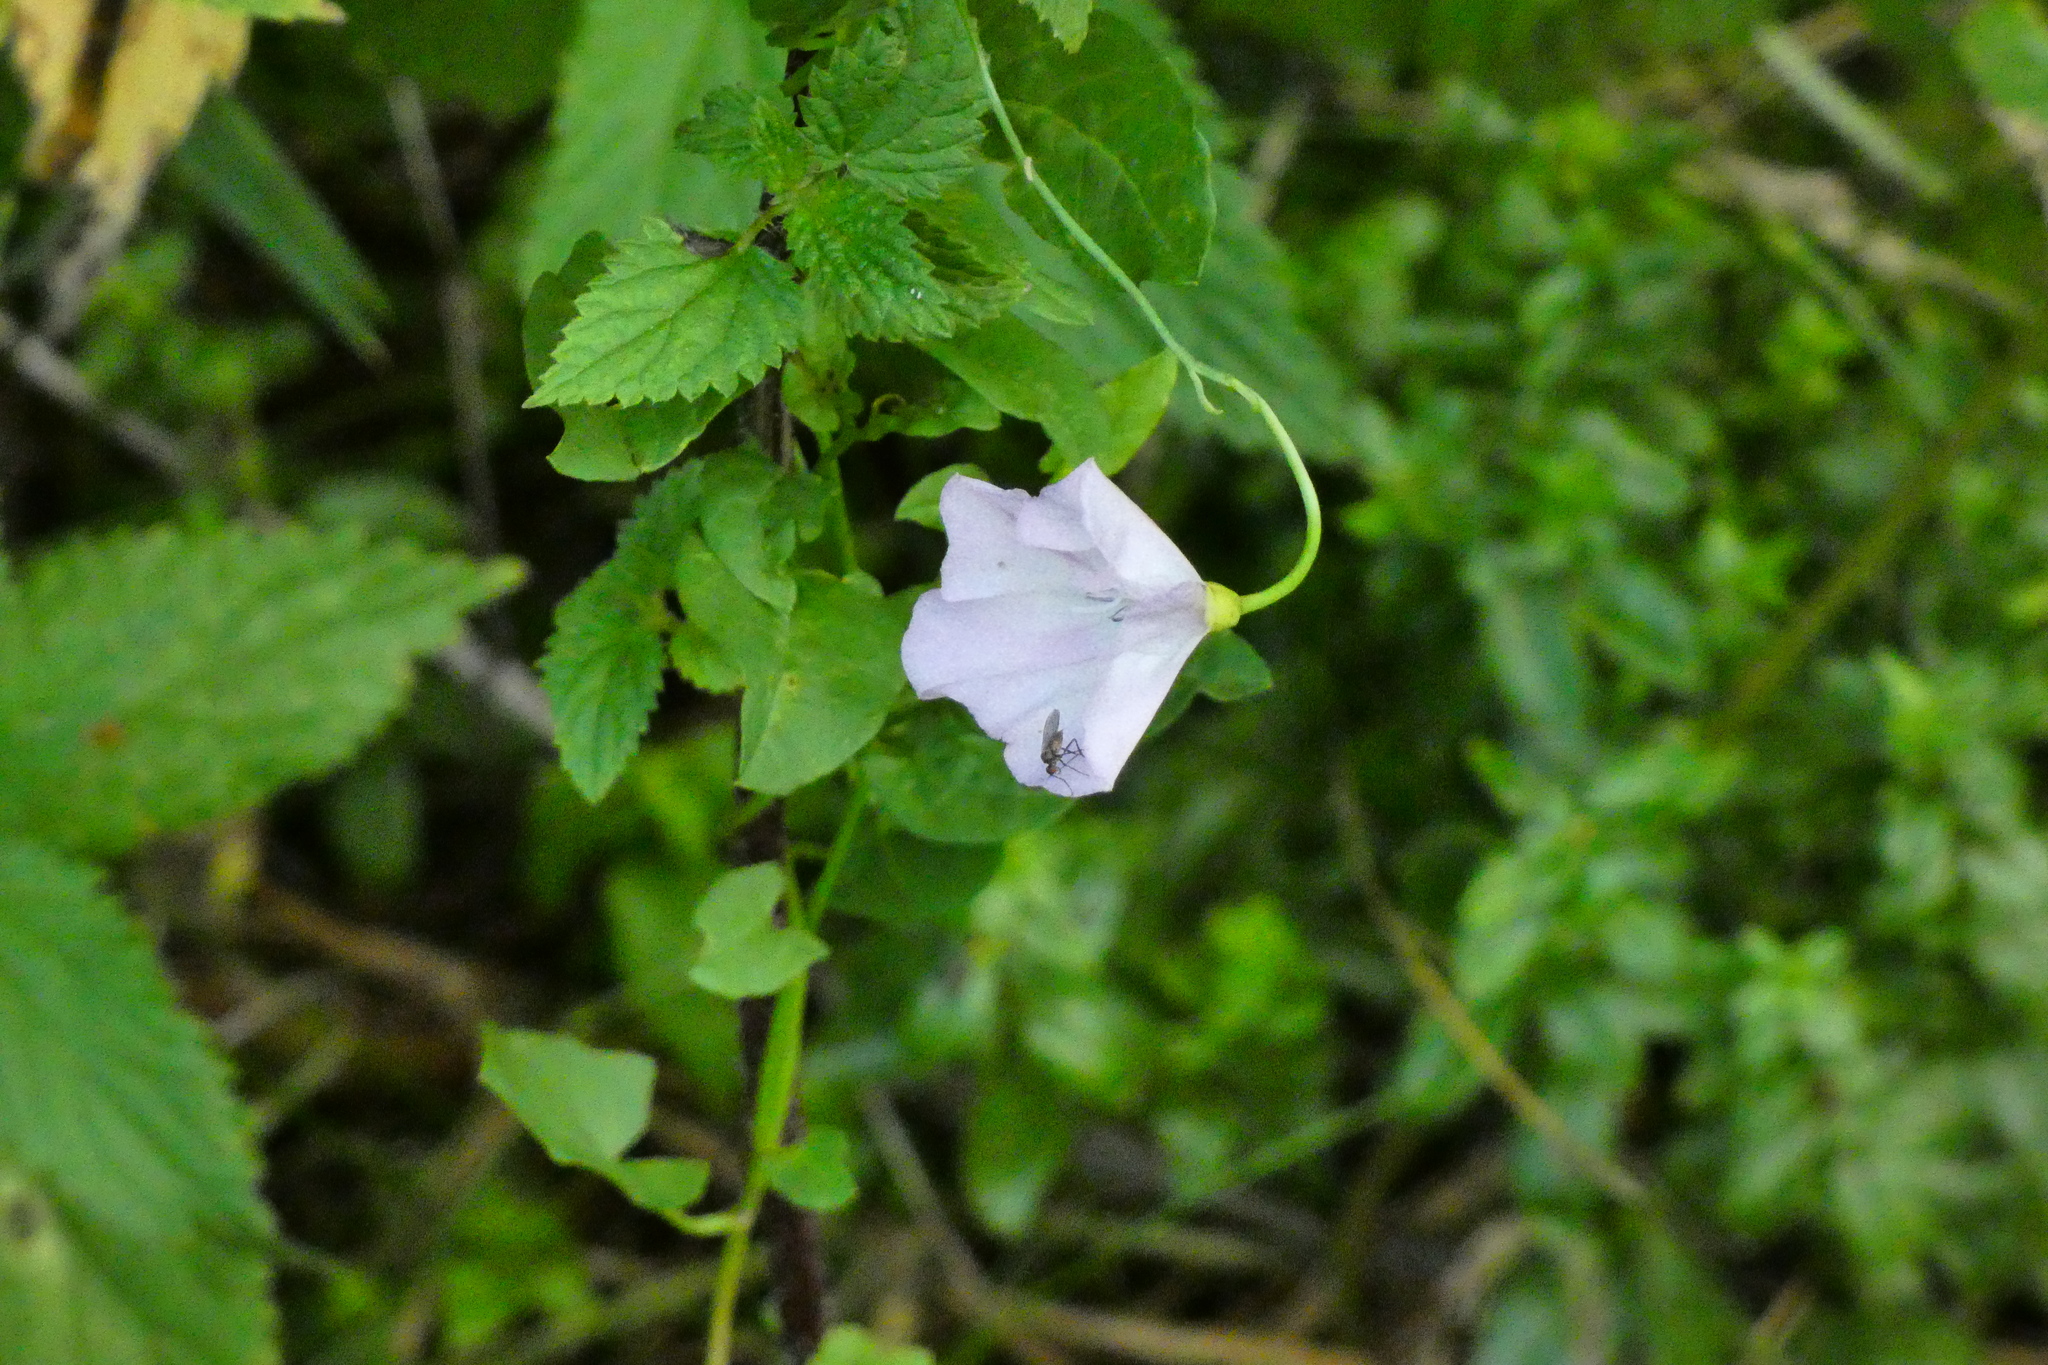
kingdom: Plantae
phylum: Tracheophyta
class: Magnoliopsida
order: Solanales
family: Convolvulaceae
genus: Convolvulus
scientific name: Convolvulus arvensis
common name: Field bindweed
